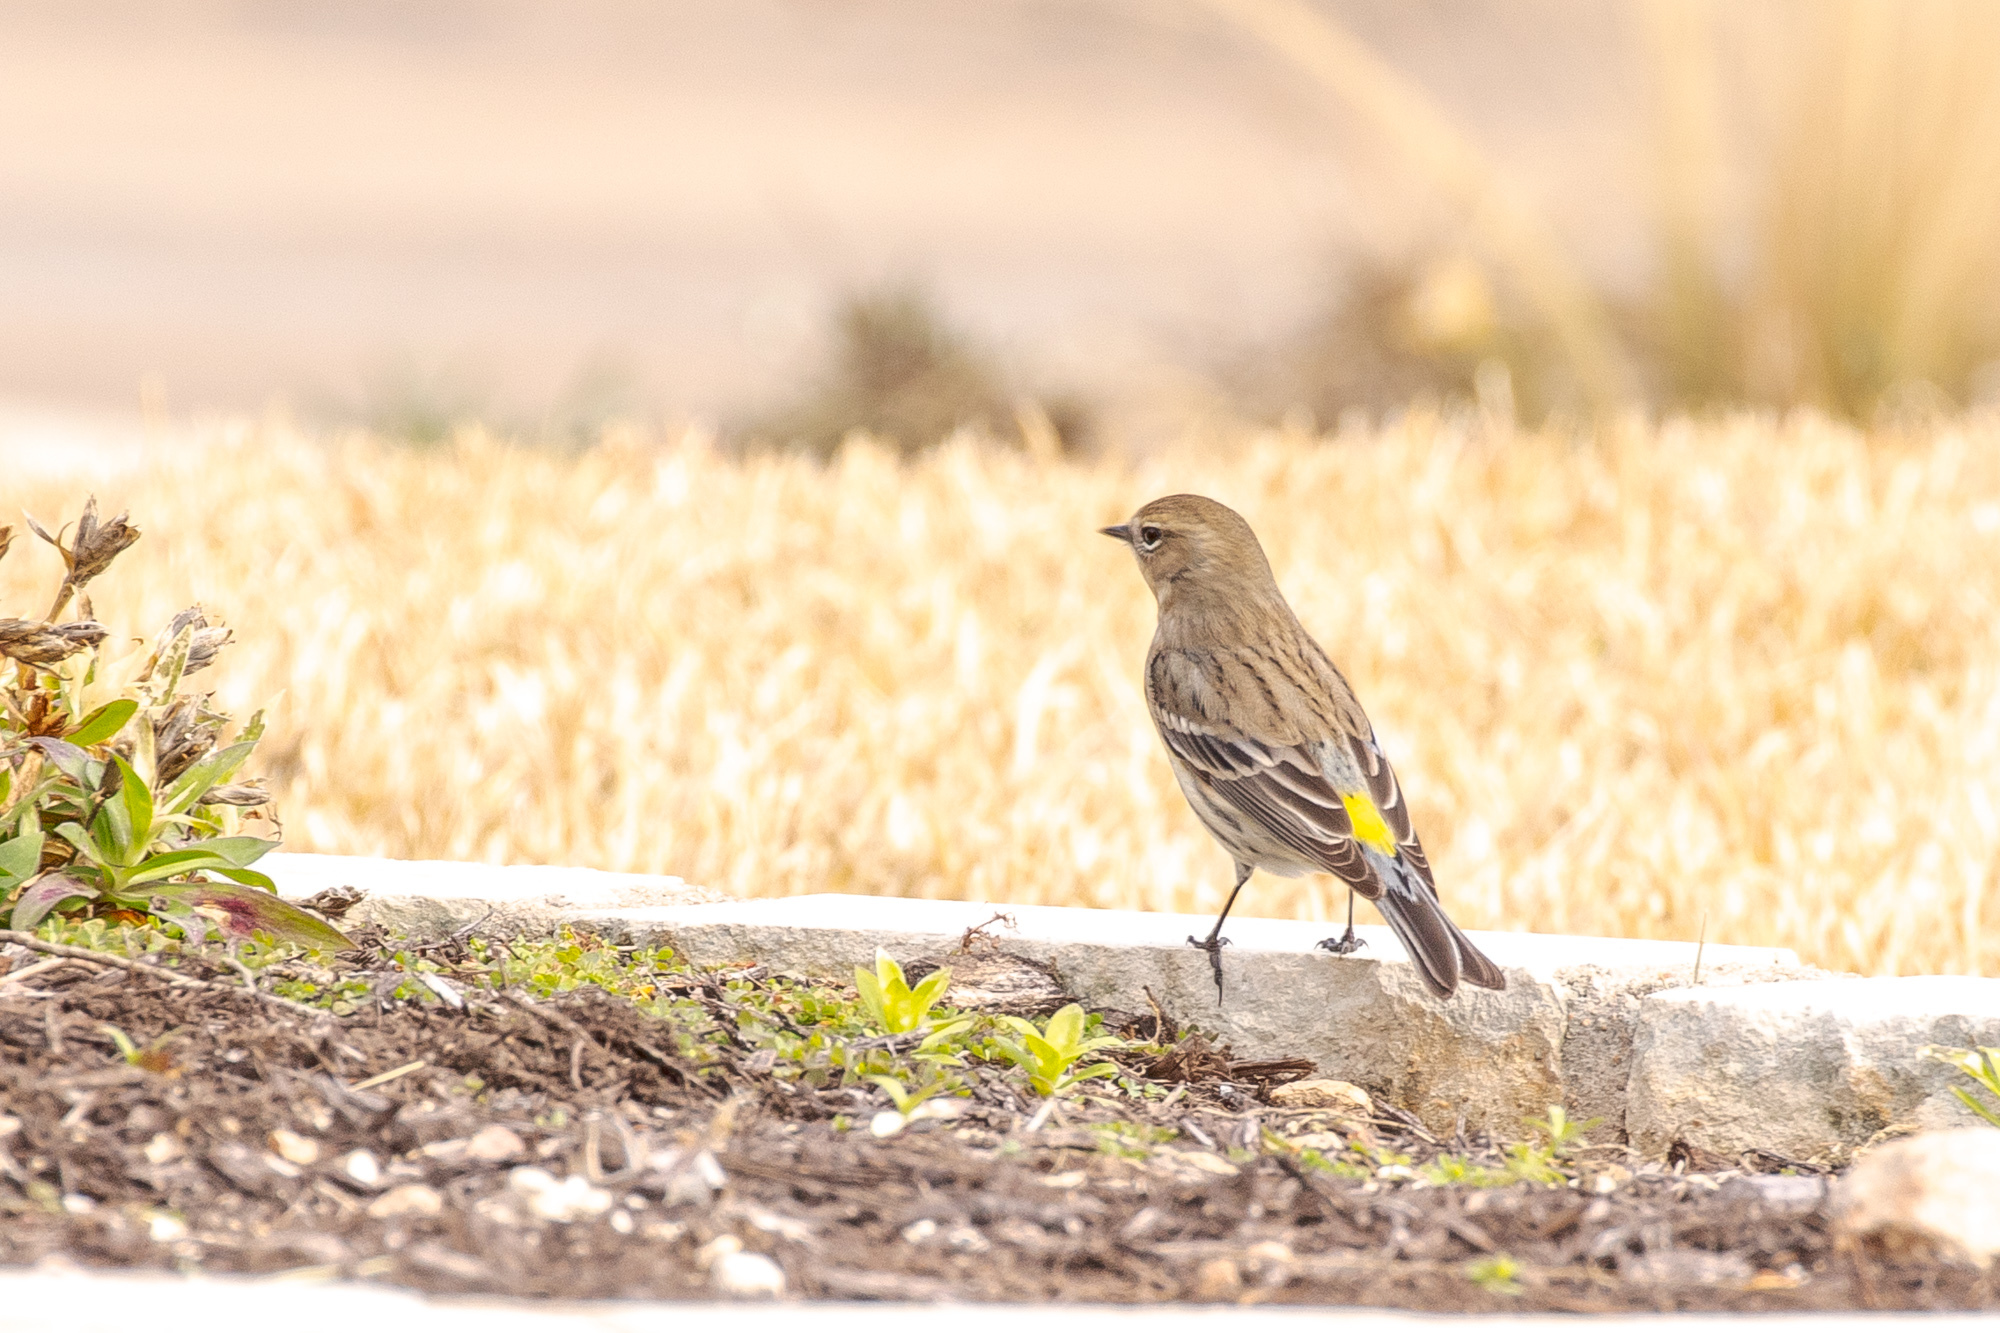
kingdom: Animalia
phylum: Chordata
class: Aves
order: Passeriformes
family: Parulidae
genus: Setophaga
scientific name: Setophaga coronata
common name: Myrtle warbler
